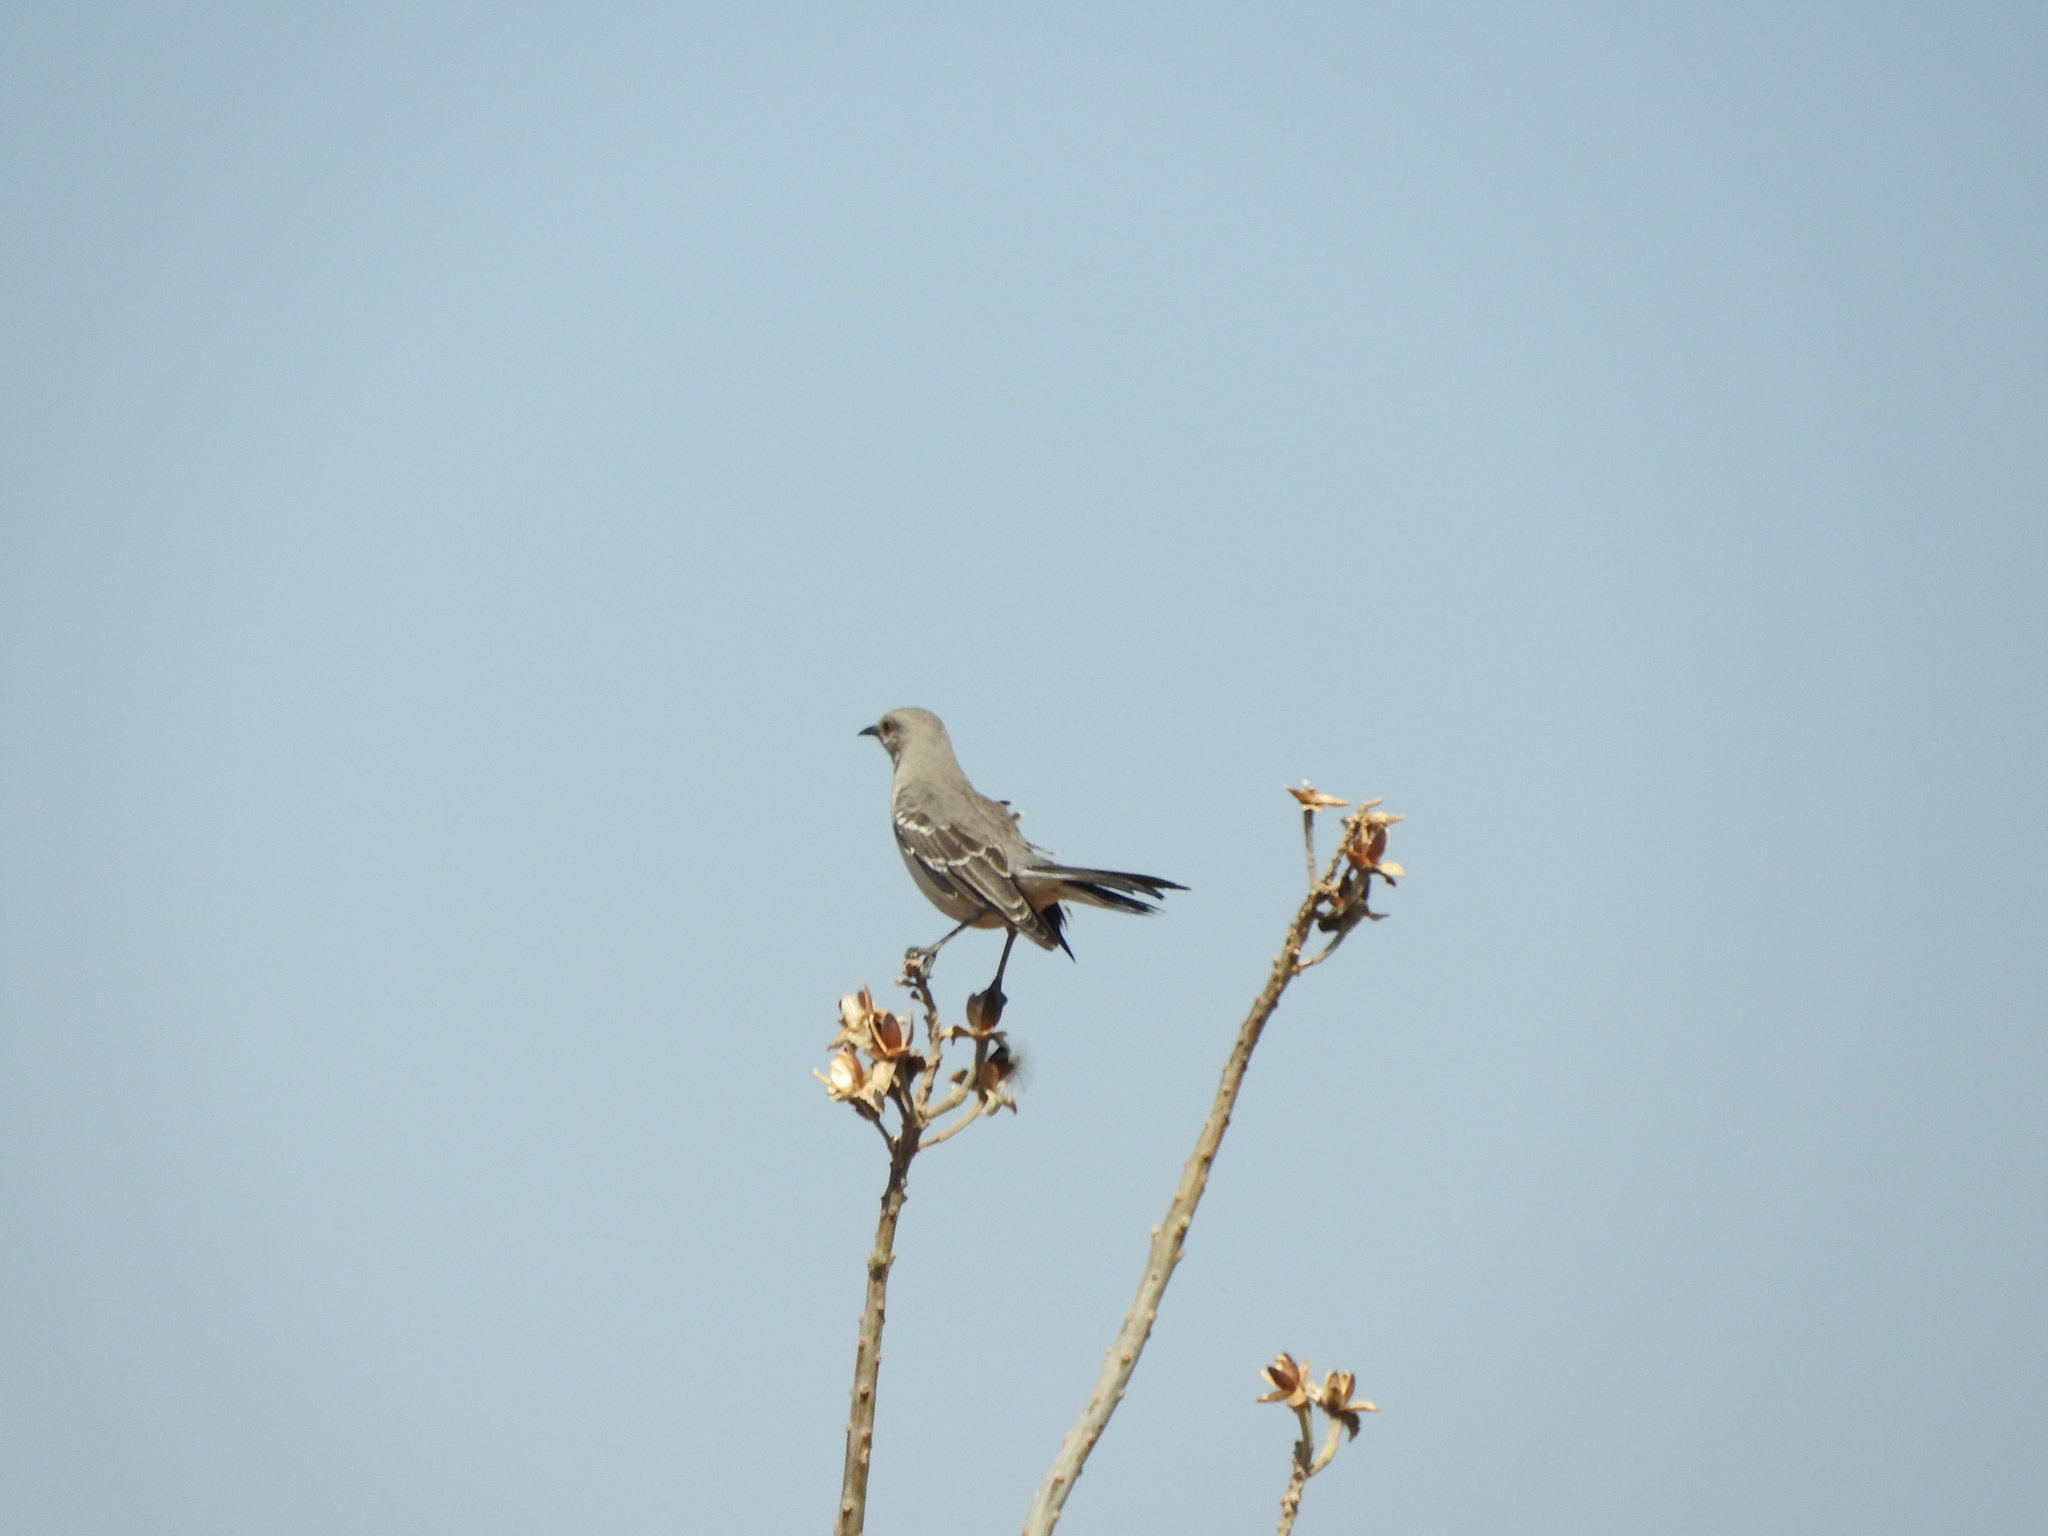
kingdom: Animalia
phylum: Chordata
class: Aves
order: Passeriformes
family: Mimidae
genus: Mimus
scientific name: Mimus polyglottos
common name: Northern mockingbird
